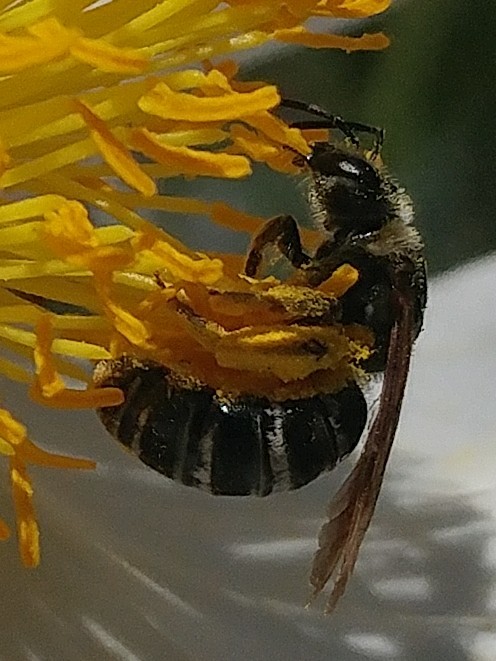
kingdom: Animalia
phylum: Arthropoda
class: Insecta
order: Hymenoptera
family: Halictidae
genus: Halictus
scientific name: Halictus farinosus
